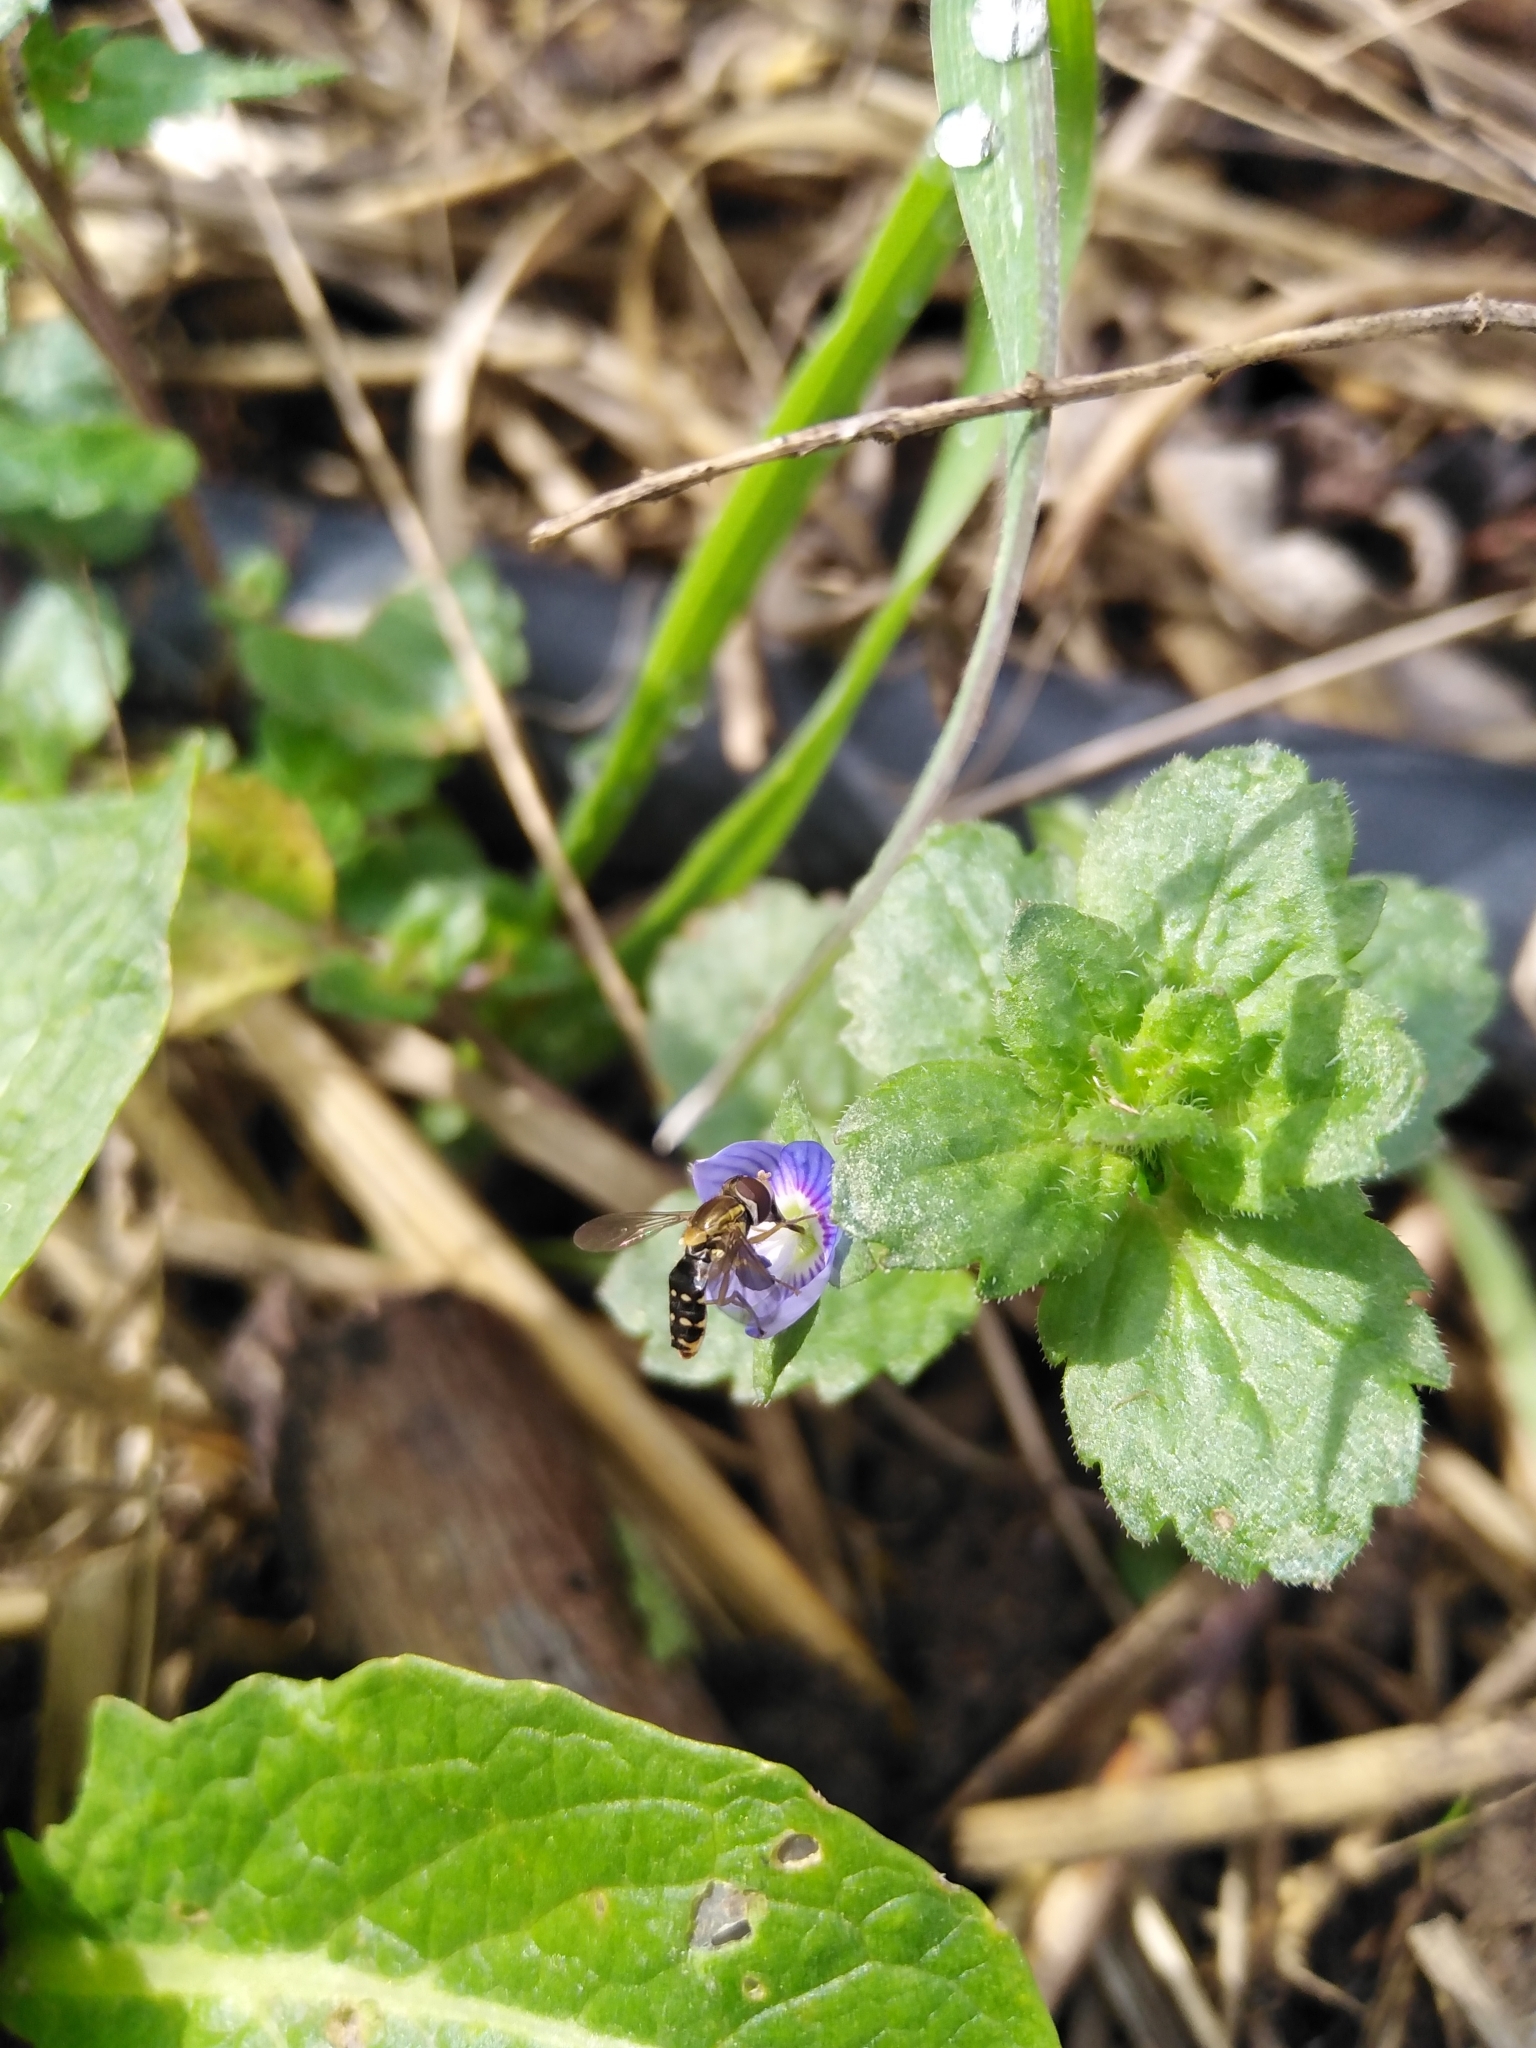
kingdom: Animalia
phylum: Arthropoda
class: Insecta
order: Diptera
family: Syrphidae
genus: Toxomerus
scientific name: Toxomerus vertebratus
